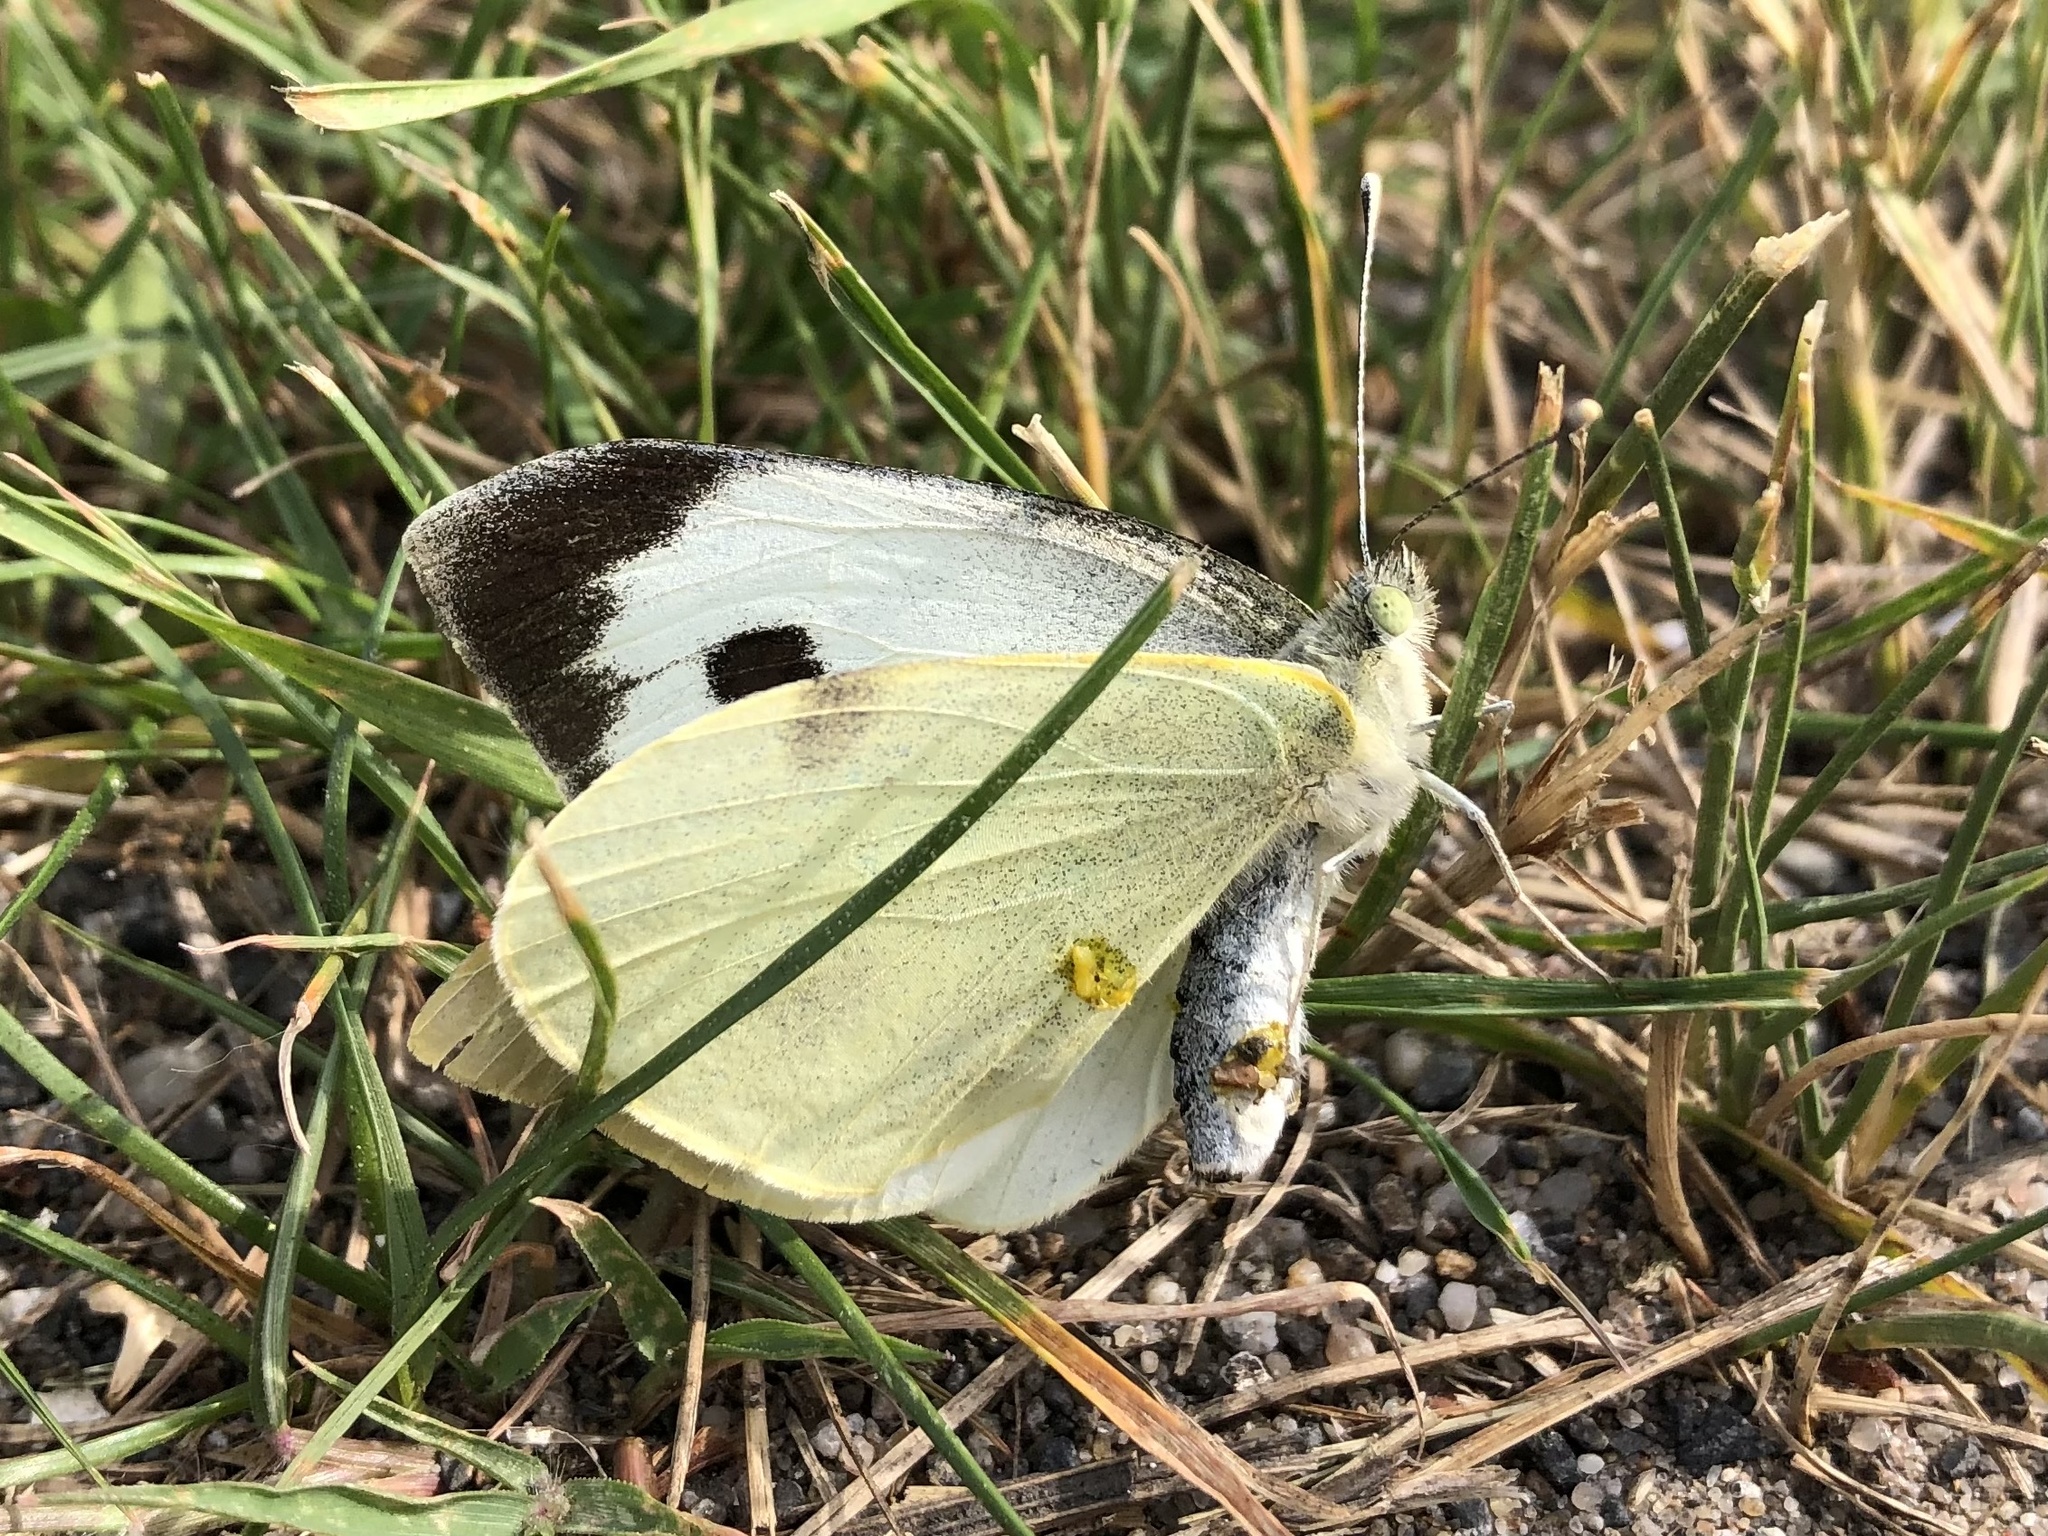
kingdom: Animalia
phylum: Arthropoda
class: Insecta
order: Lepidoptera
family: Pieridae
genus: Pieris
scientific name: Pieris brassicae
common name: Large white
